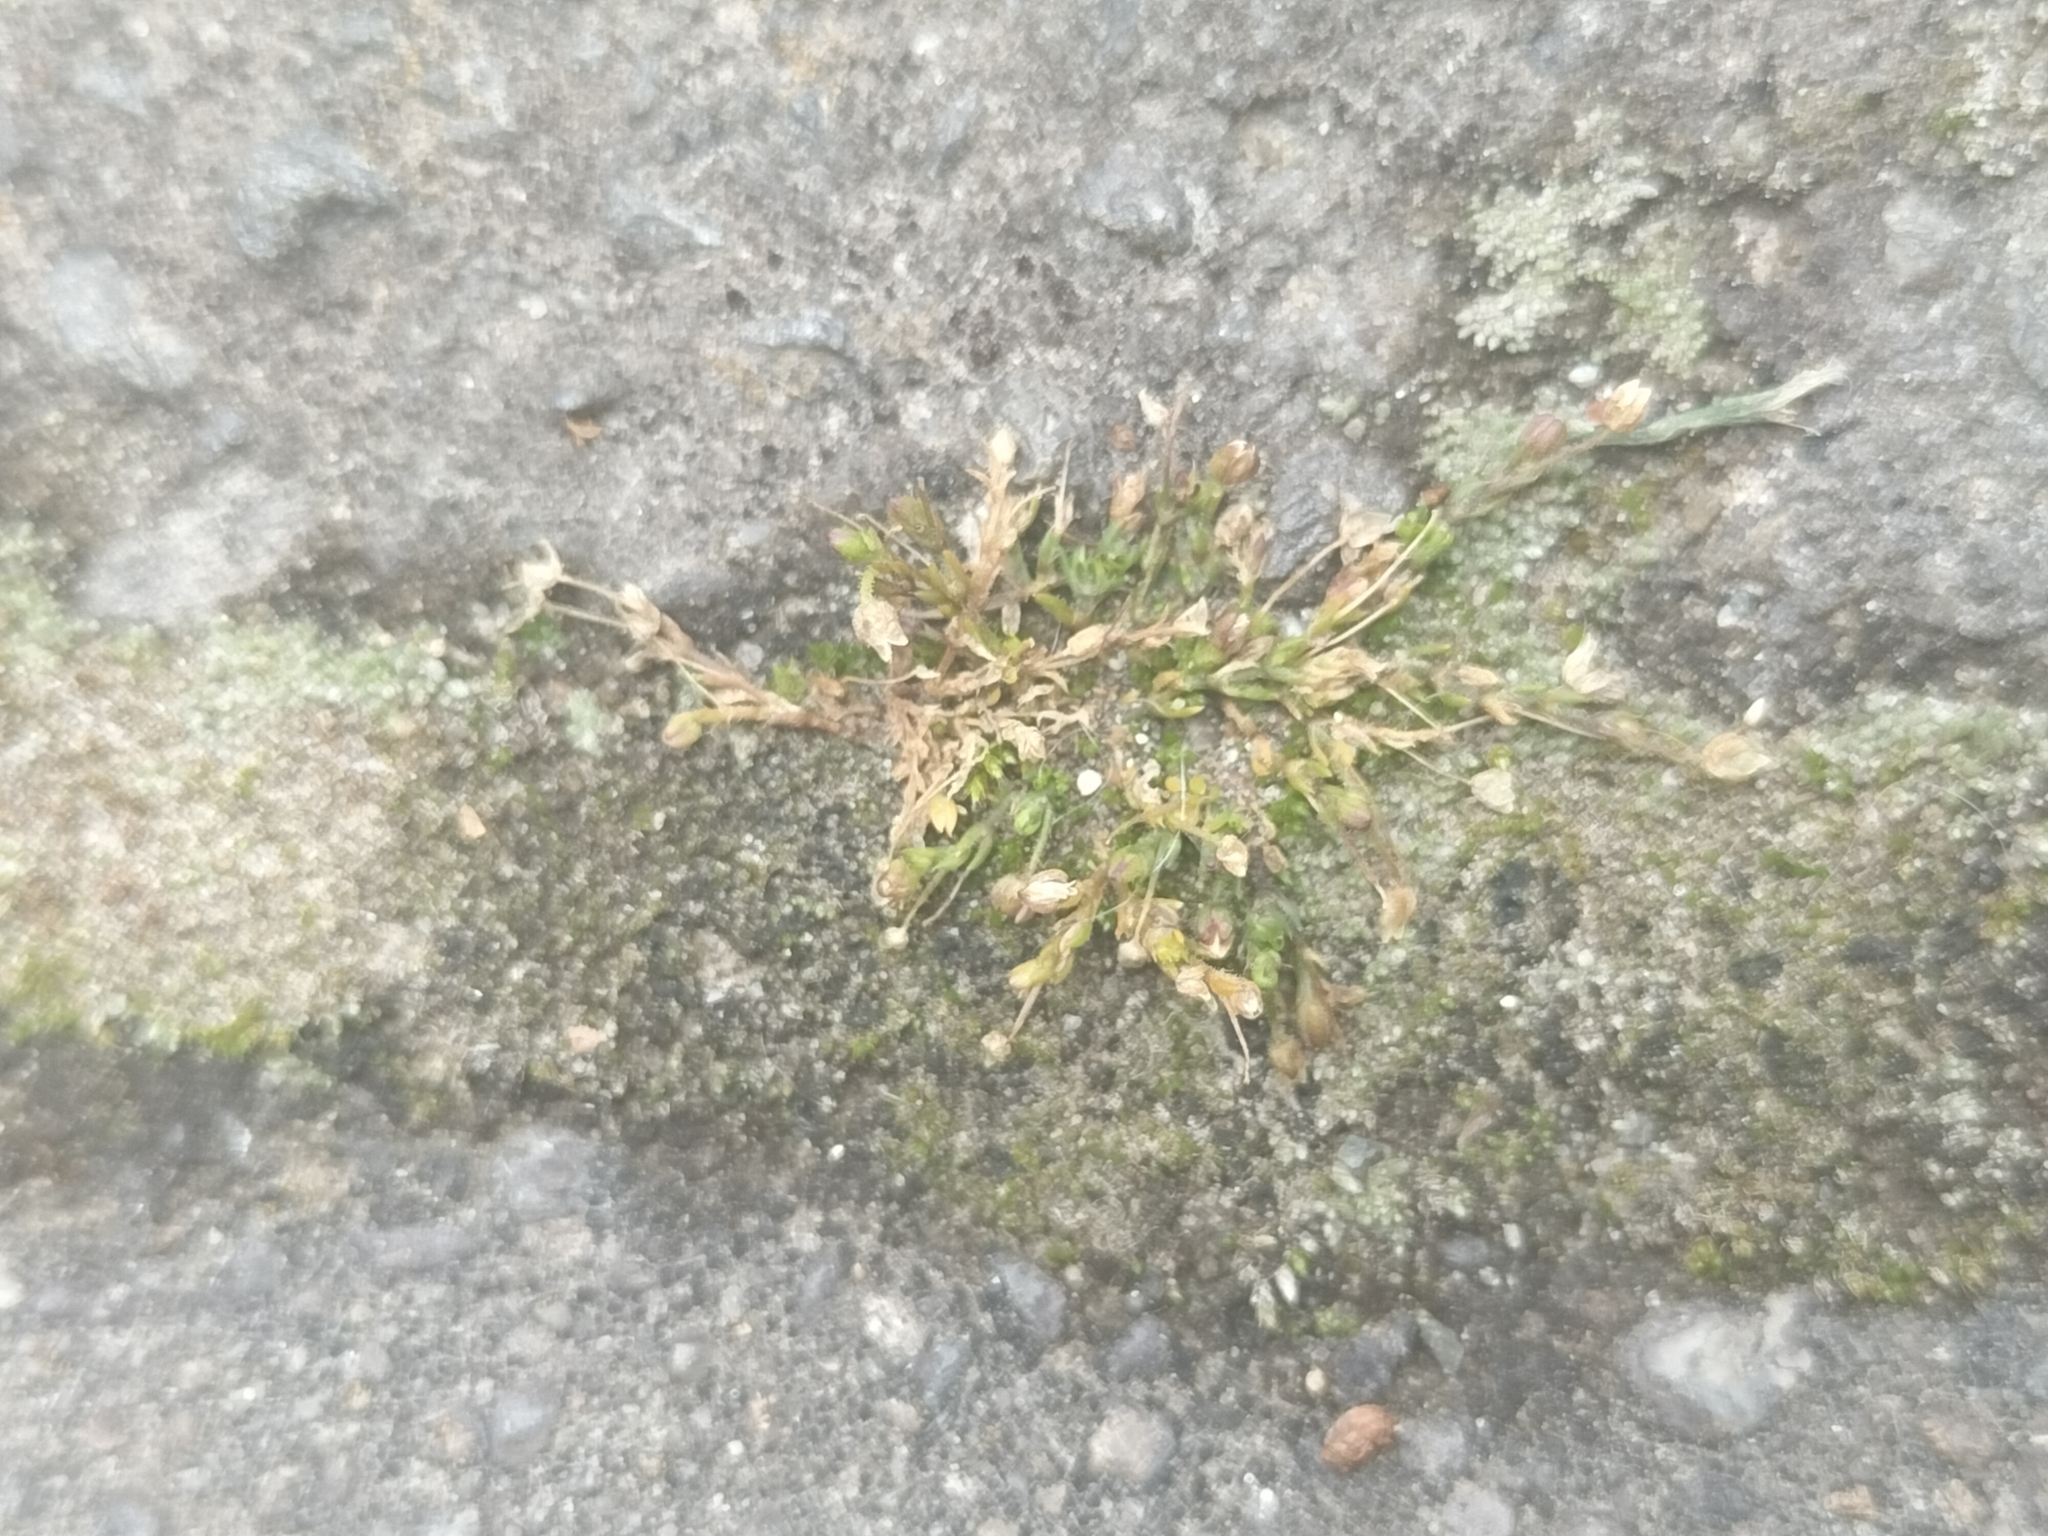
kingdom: Plantae
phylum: Tracheophyta
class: Magnoliopsida
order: Caryophyllales
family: Caryophyllaceae
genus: Sagina
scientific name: Sagina apetala
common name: Annual pearlwort
